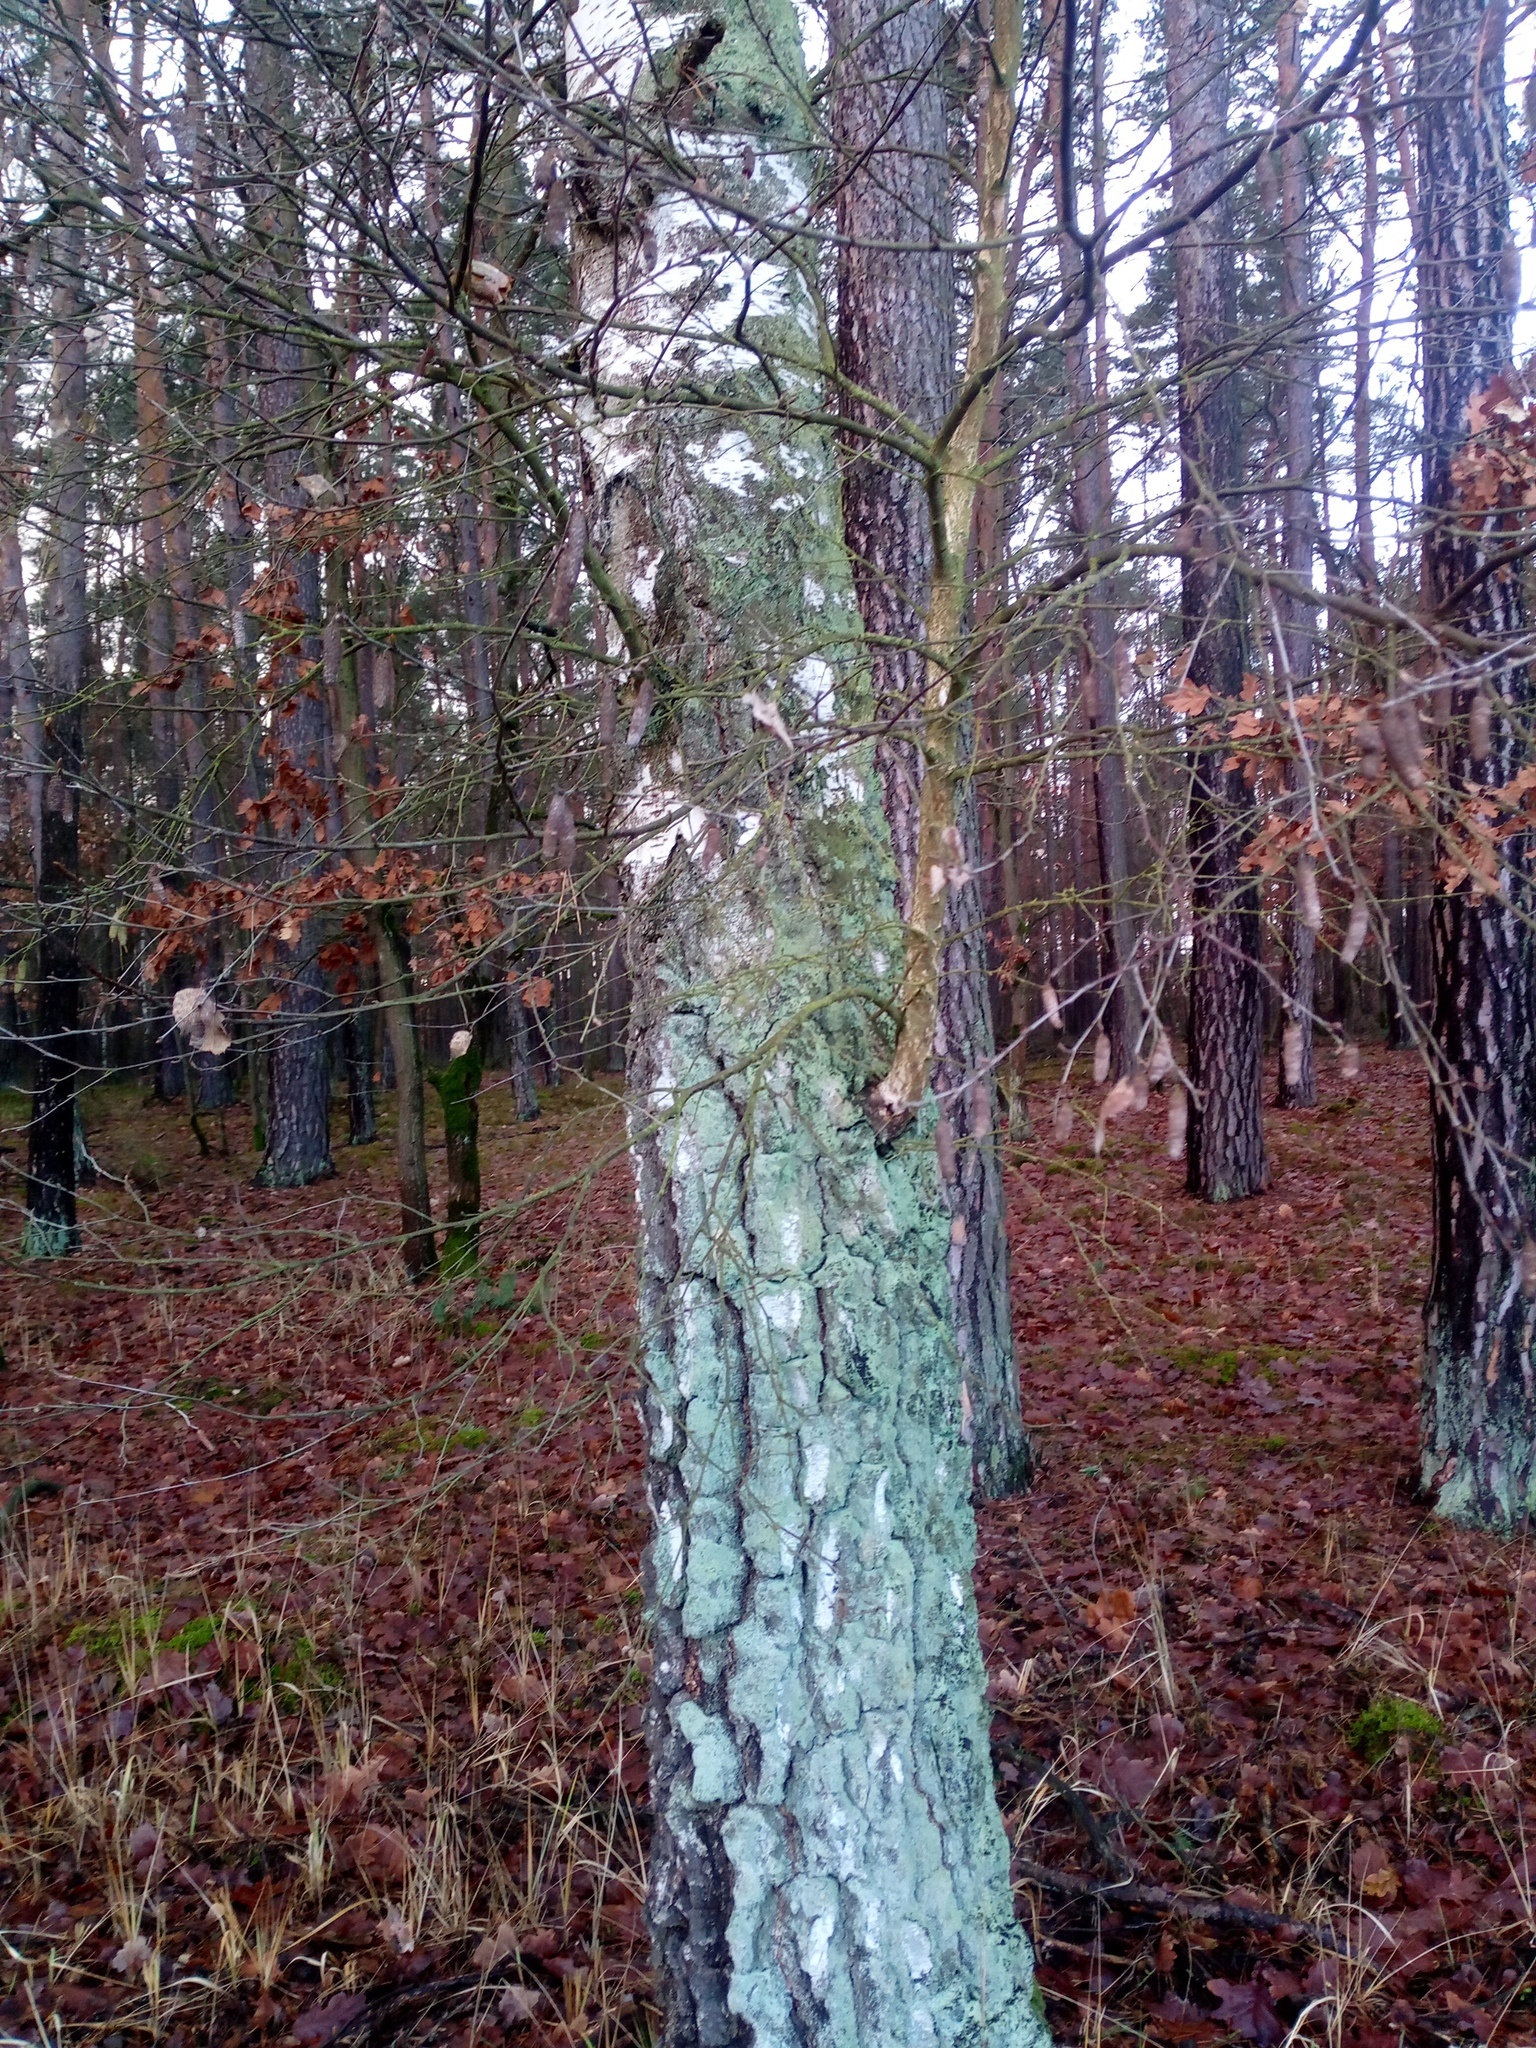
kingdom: Plantae
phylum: Tracheophyta
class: Magnoliopsida
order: Fagales
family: Betulaceae
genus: Betula
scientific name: Betula pendula
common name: Silver birch
